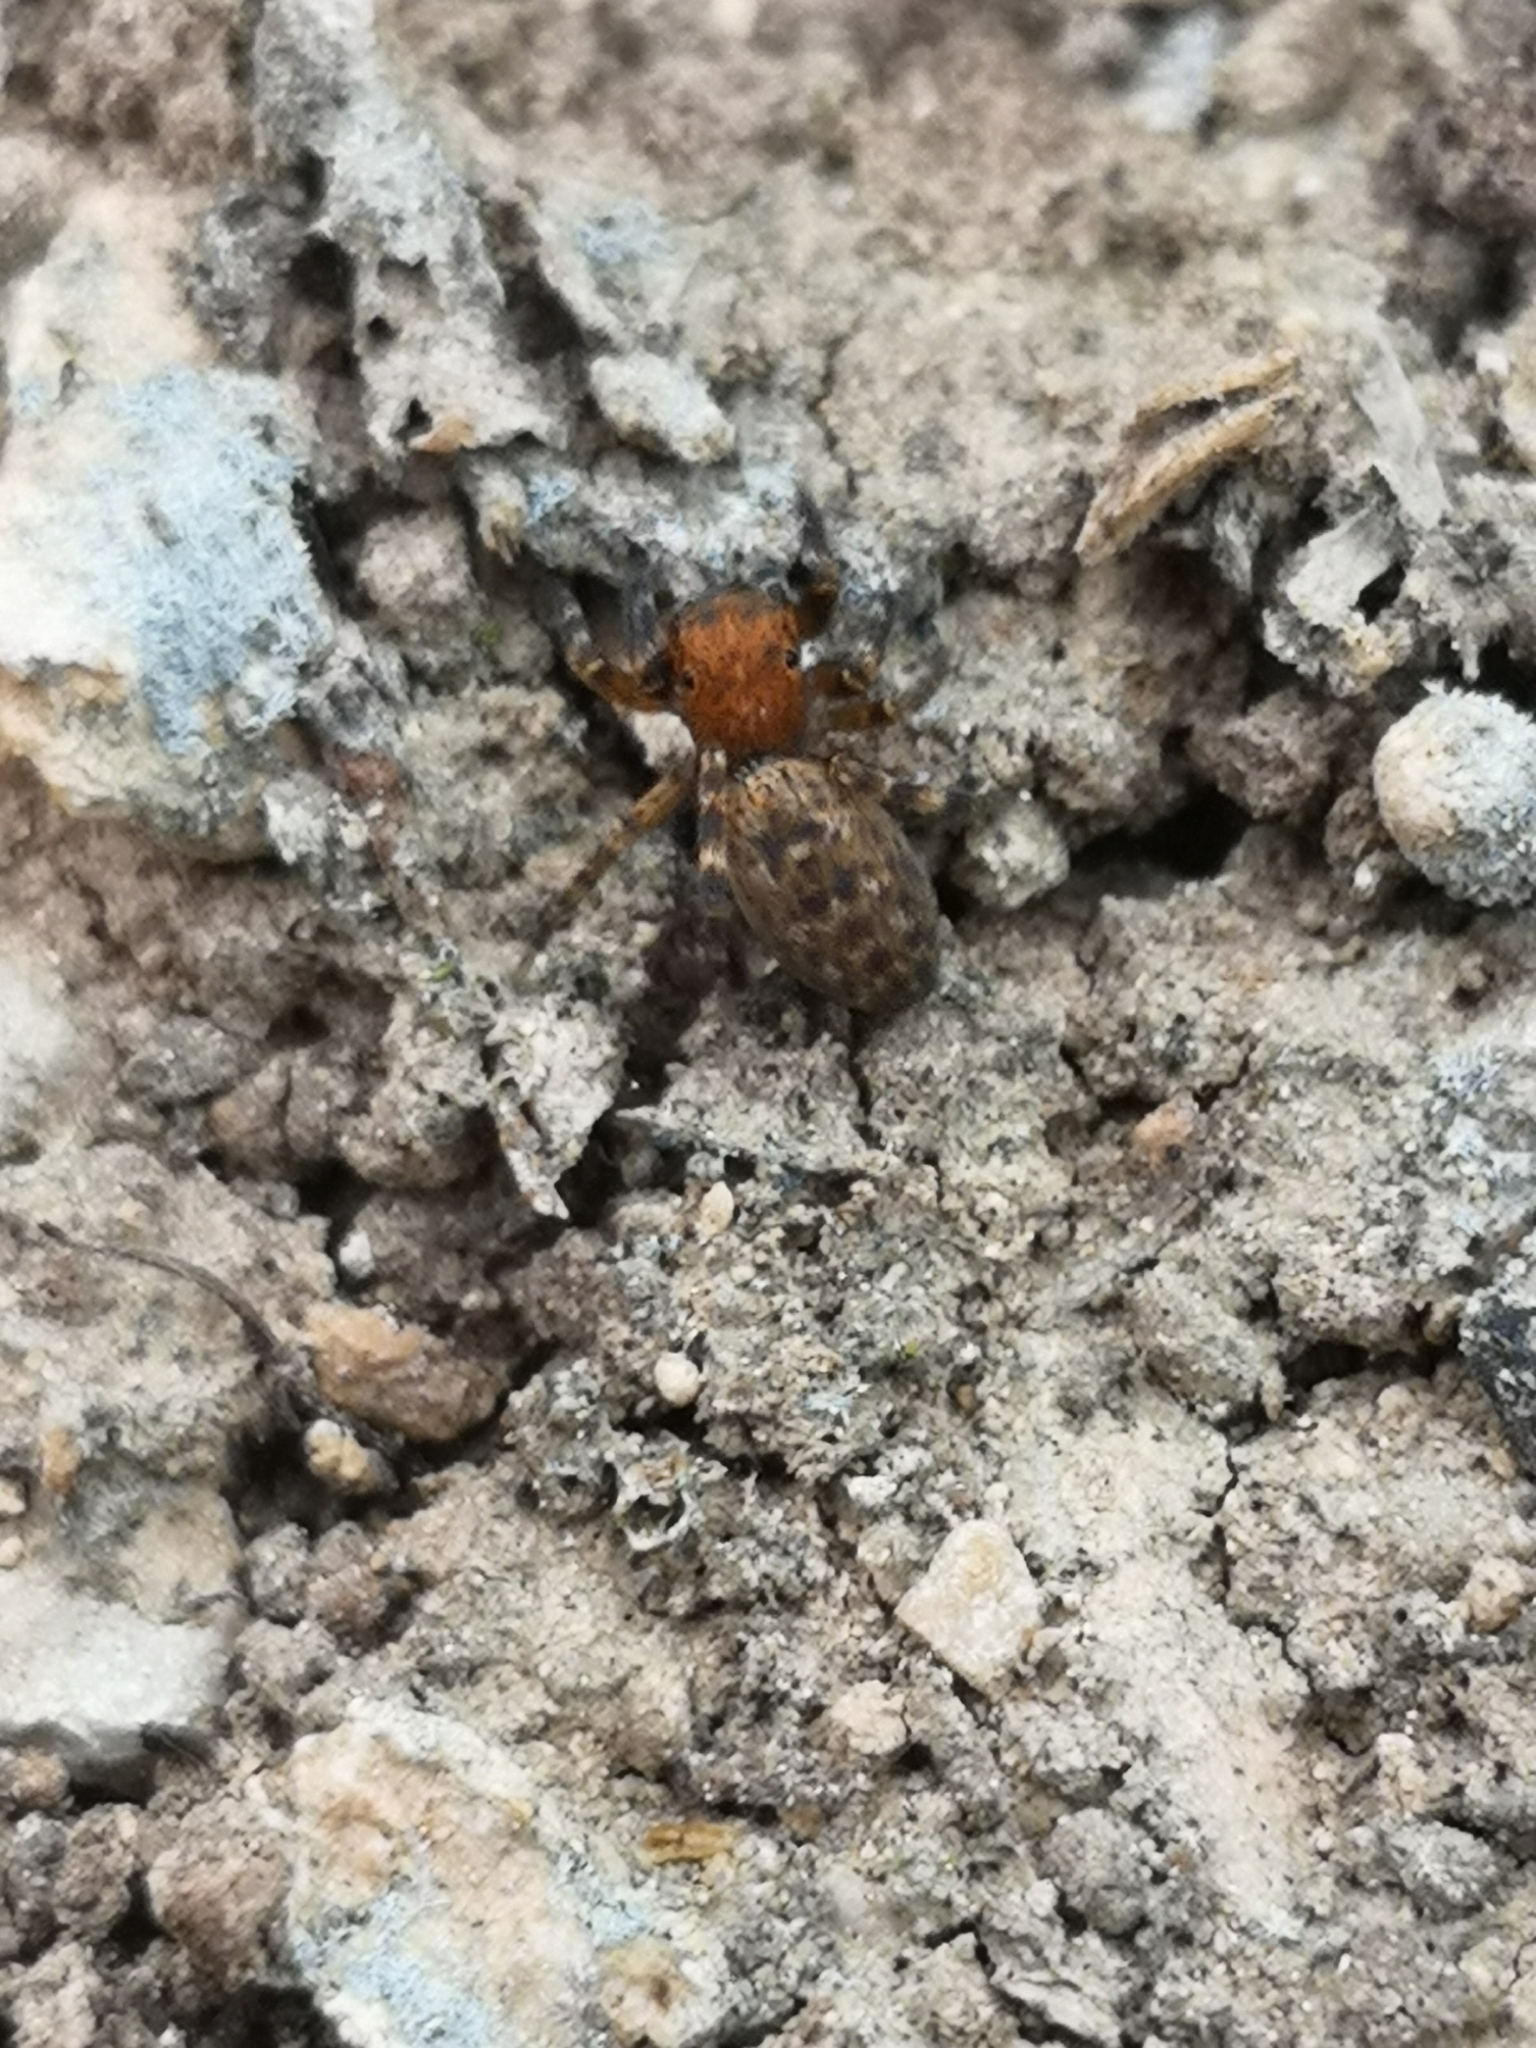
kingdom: Animalia
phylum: Arthropoda
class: Arachnida
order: Araneae
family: Salticidae
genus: Cyrba
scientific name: Cyrba algerina
